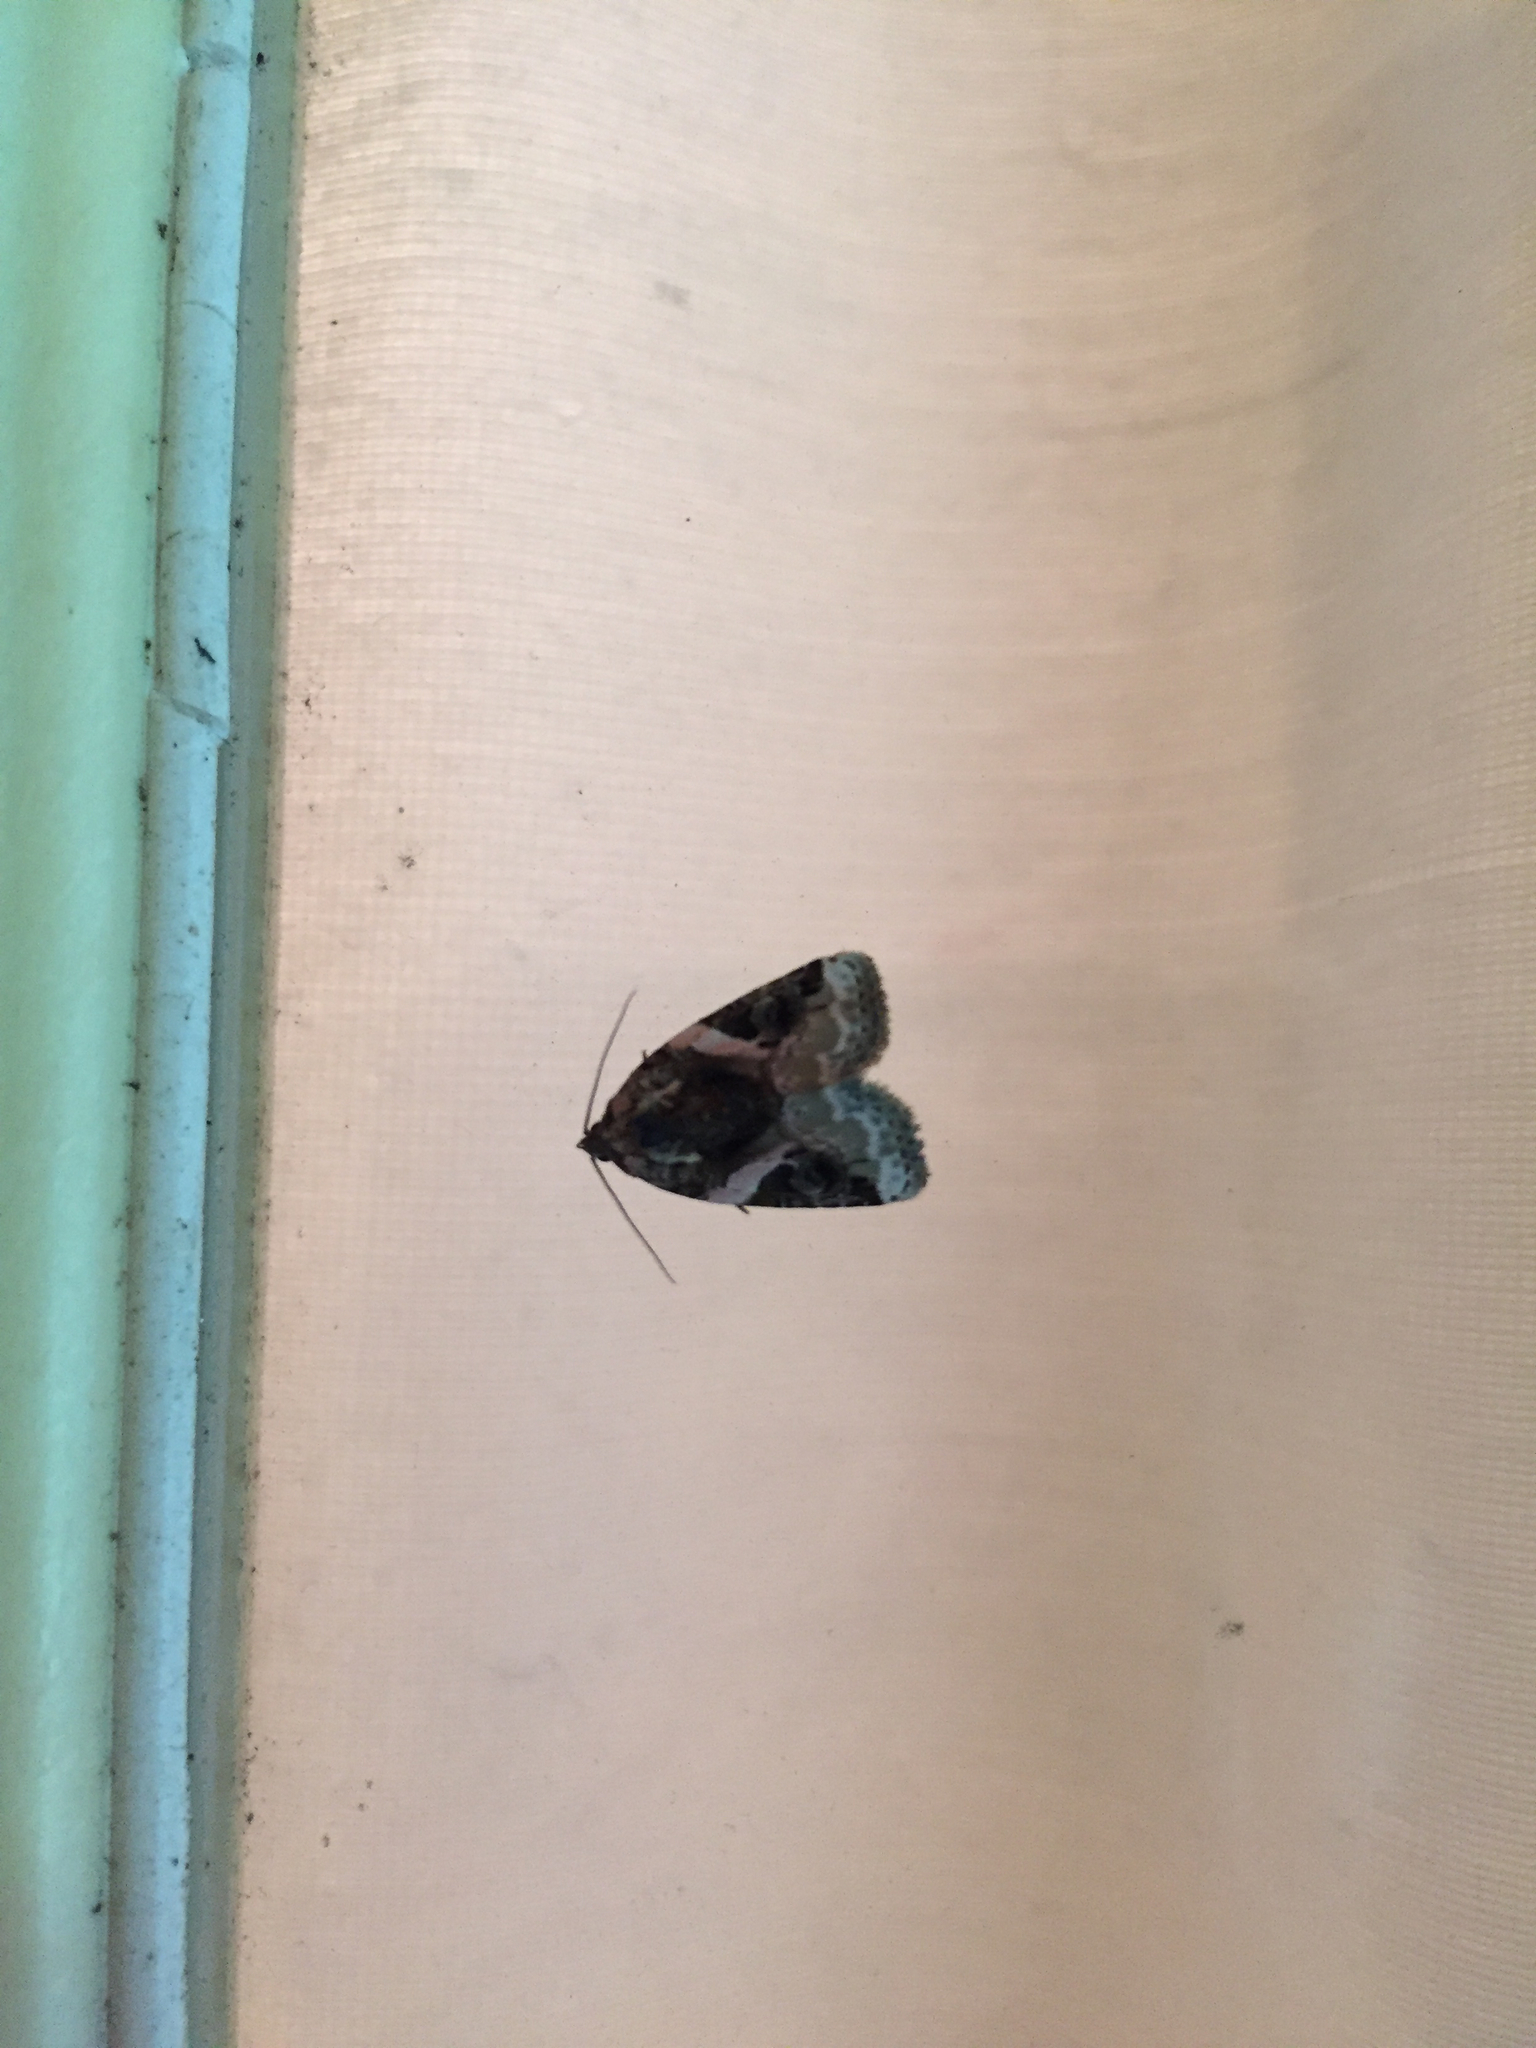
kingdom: Animalia
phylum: Arthropoda
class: Insecta
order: Lepidoptera
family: Noctuidae
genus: Pseudeustrotia
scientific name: Pseudeustrotia carneola
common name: Pink-barred lithacodia moth
